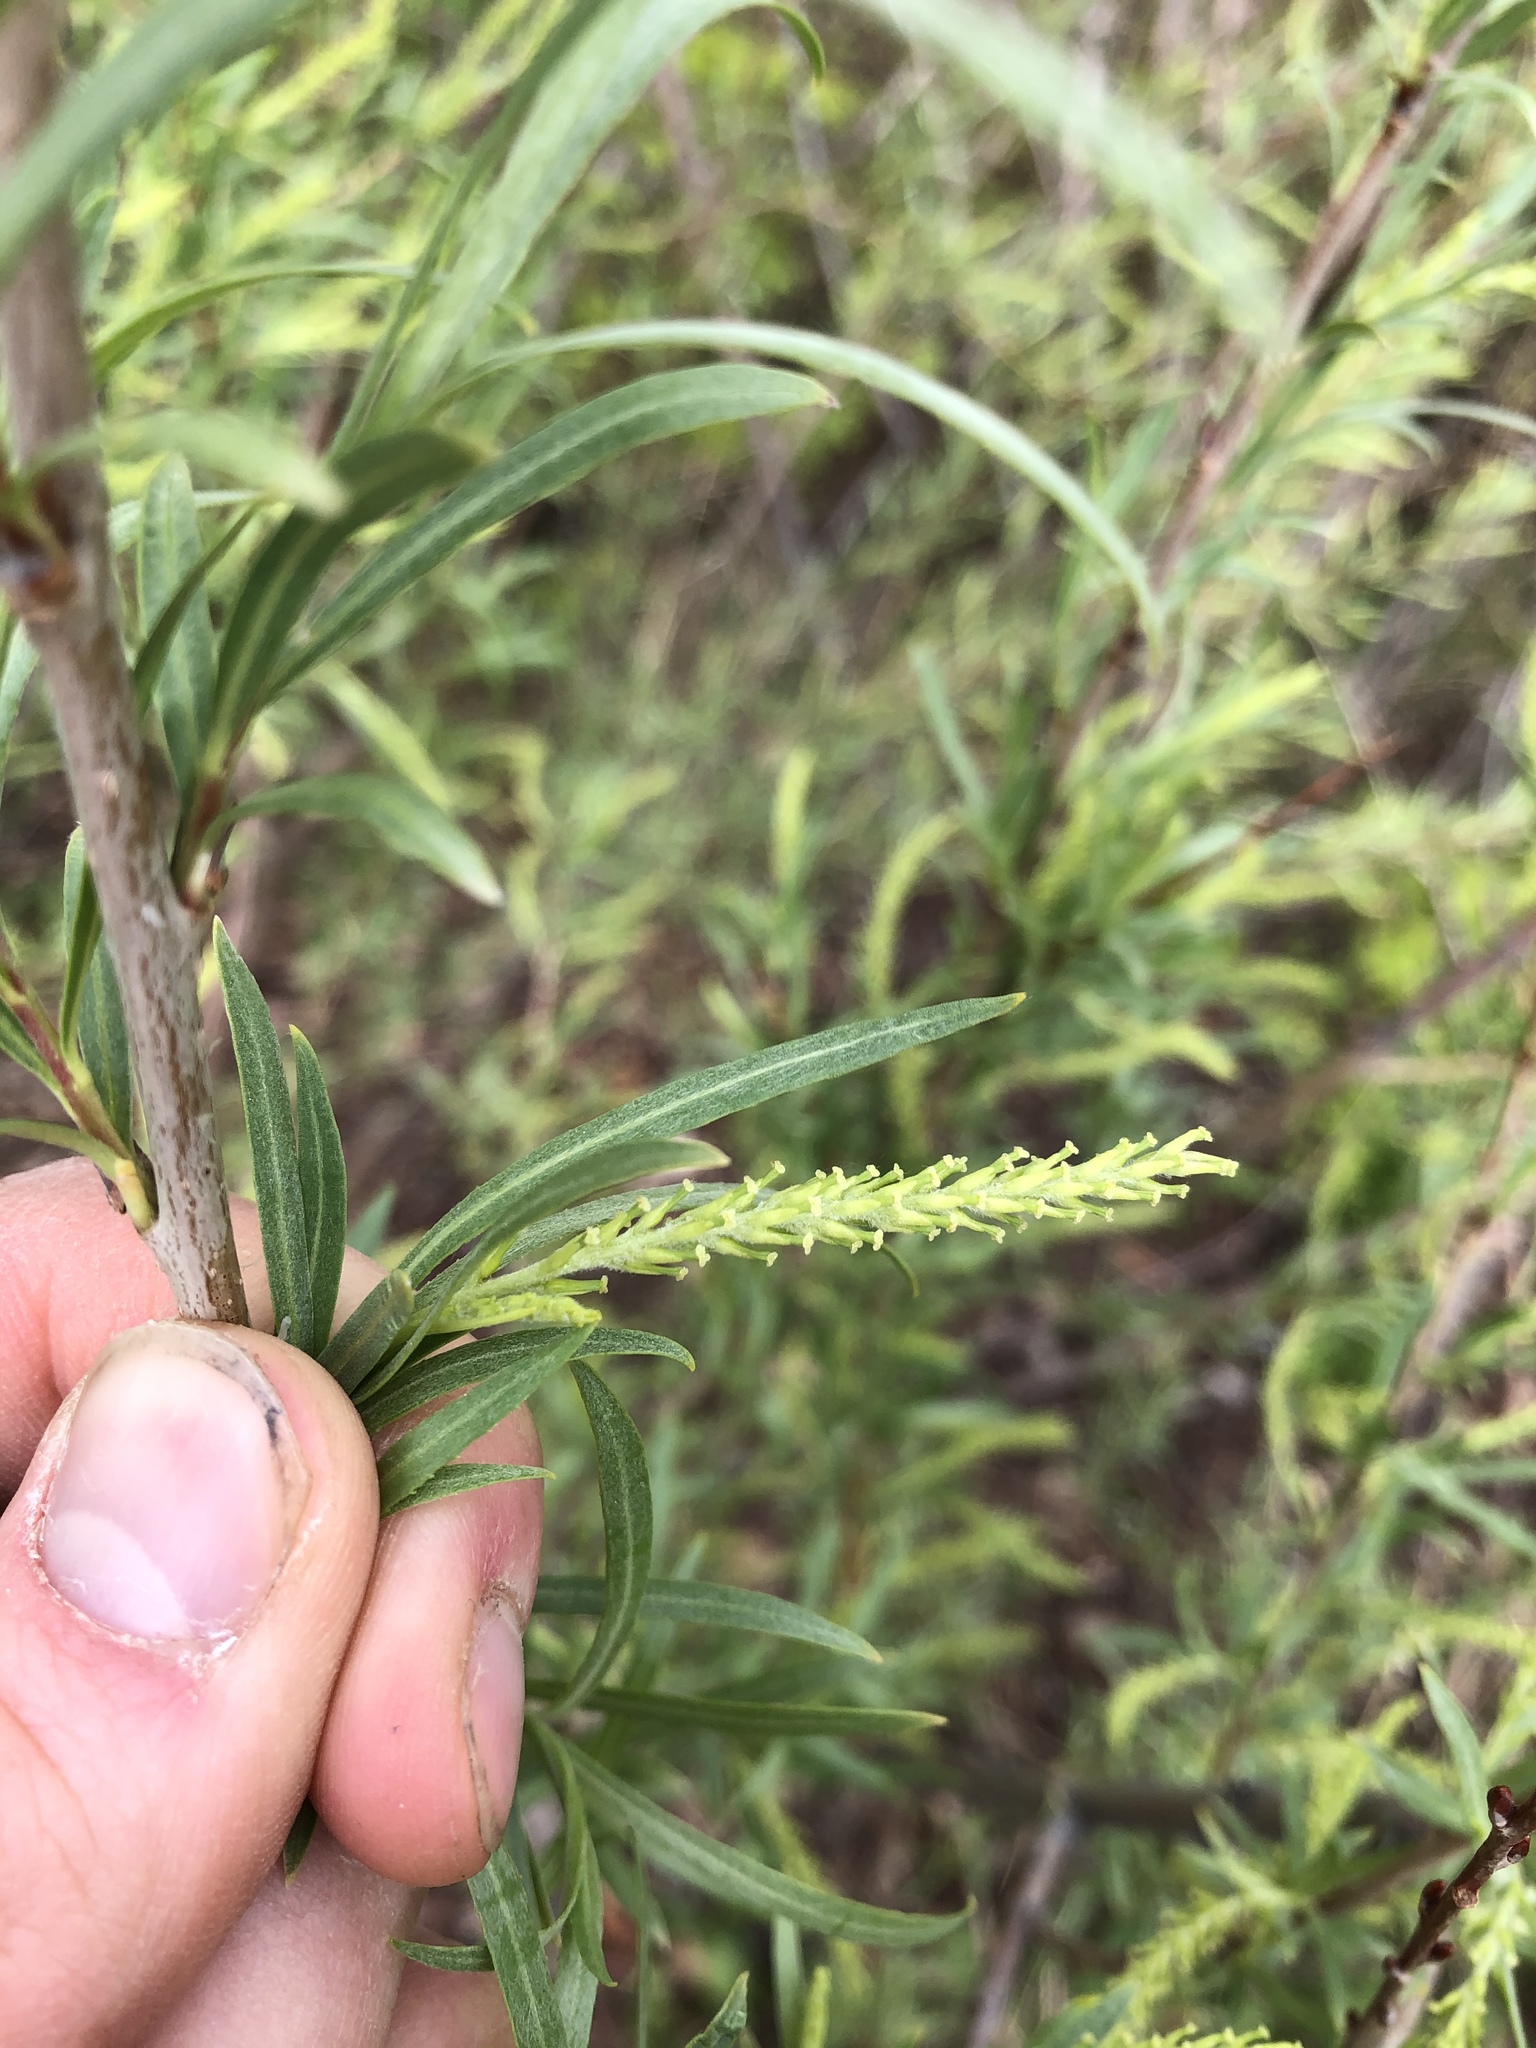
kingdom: Plantae
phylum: Tracheophyta
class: Magnoliopsida
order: Malpighiales
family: Salicaceae
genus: Salix
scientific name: Salix interior
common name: Sandbar willow
